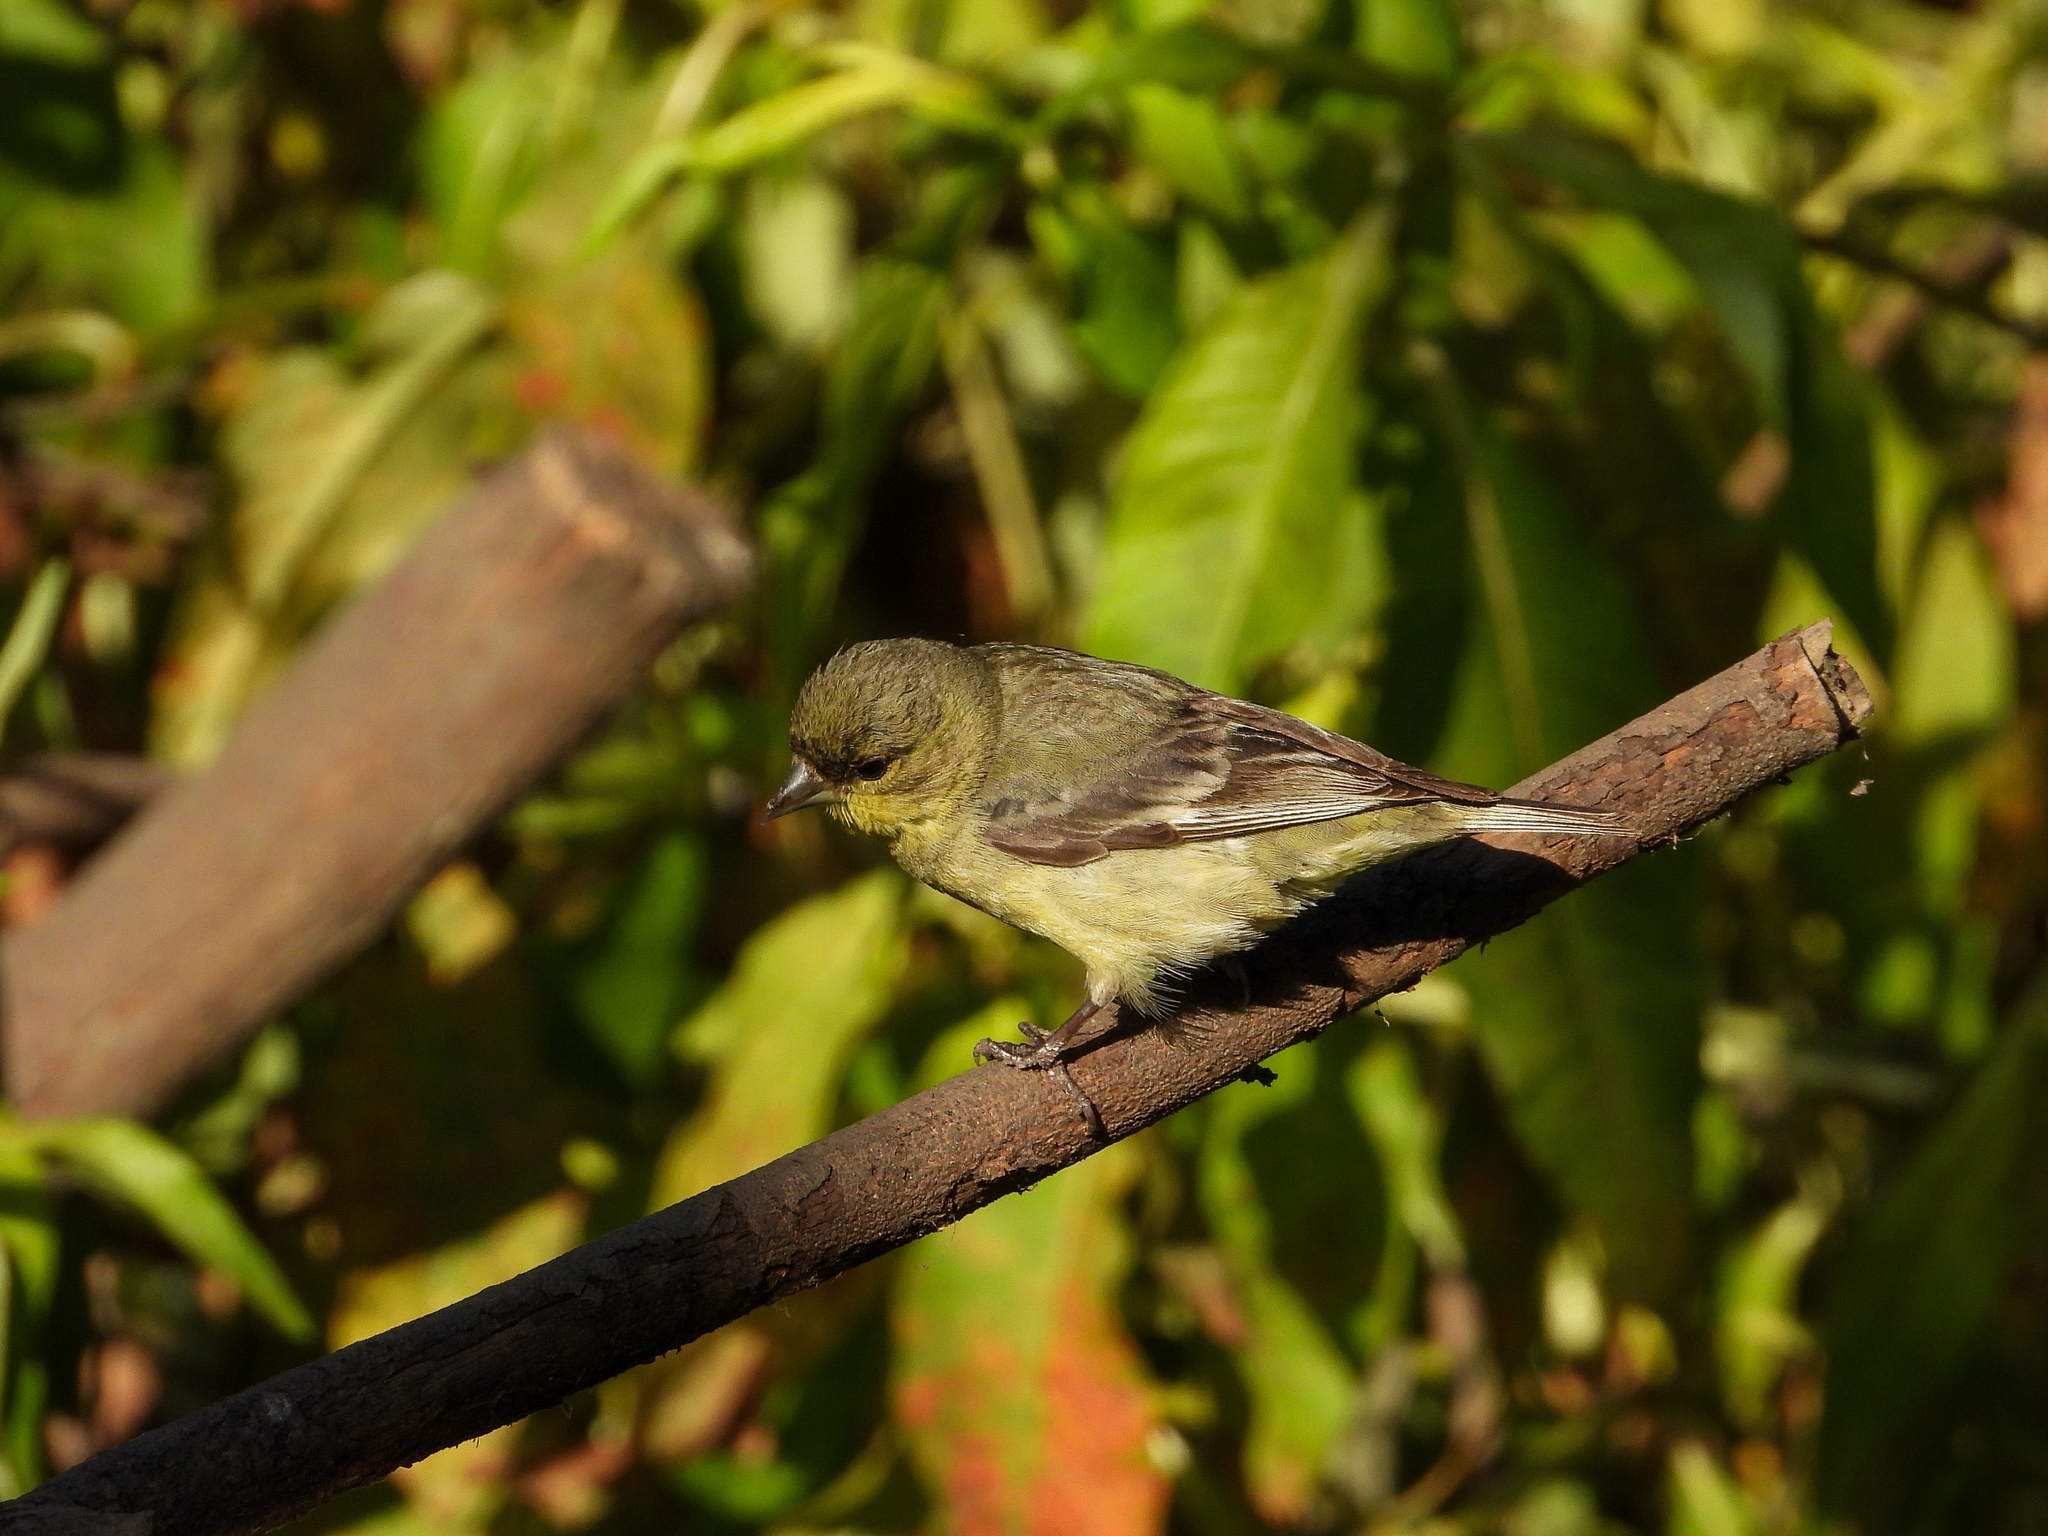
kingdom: Animalia
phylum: Chordata
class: Aves
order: Passeriformes
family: Fringillidae
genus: Spinus
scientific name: Spinus psaltria
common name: Lesser goldfinch
